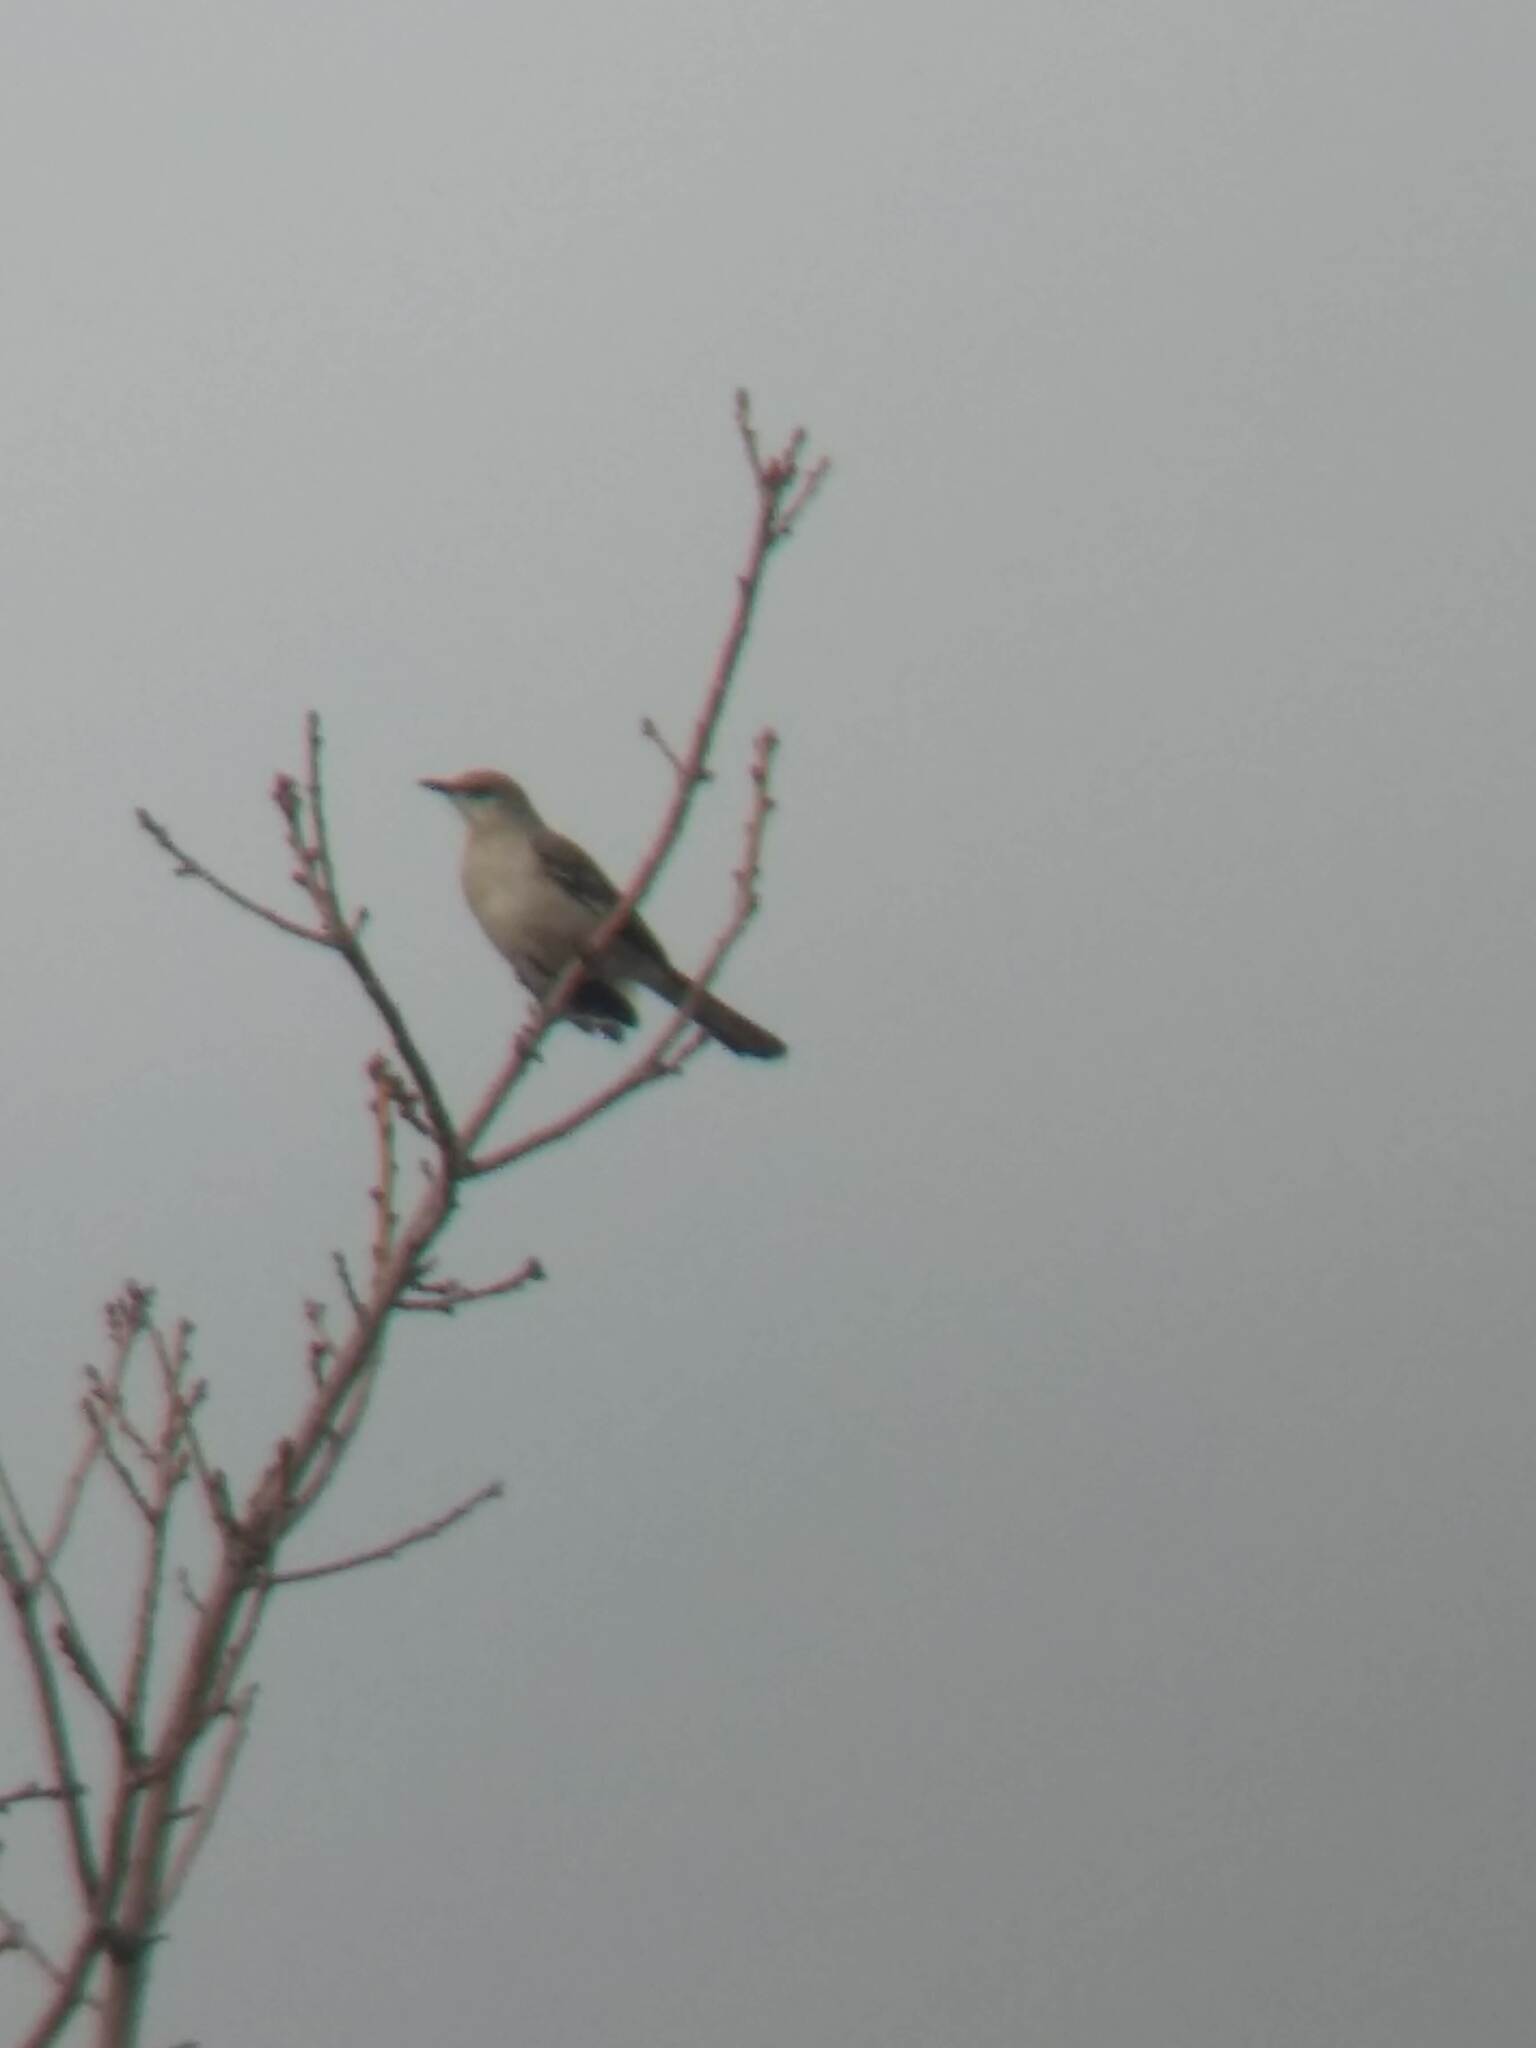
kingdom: Animalia
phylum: Chordata
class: Aves
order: Passeriformes
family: Mimidae
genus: Mimus
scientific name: Mimus polyglottos
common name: Northern mockingbird
